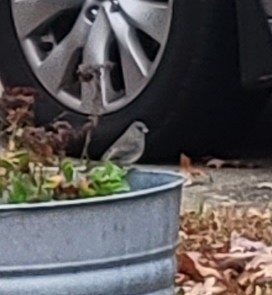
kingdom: Animalia
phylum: Chordata
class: Aves
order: Passeriformes
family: Passerellidae
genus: Junco
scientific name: Junco hyemalis
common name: Dark-eyed junco
